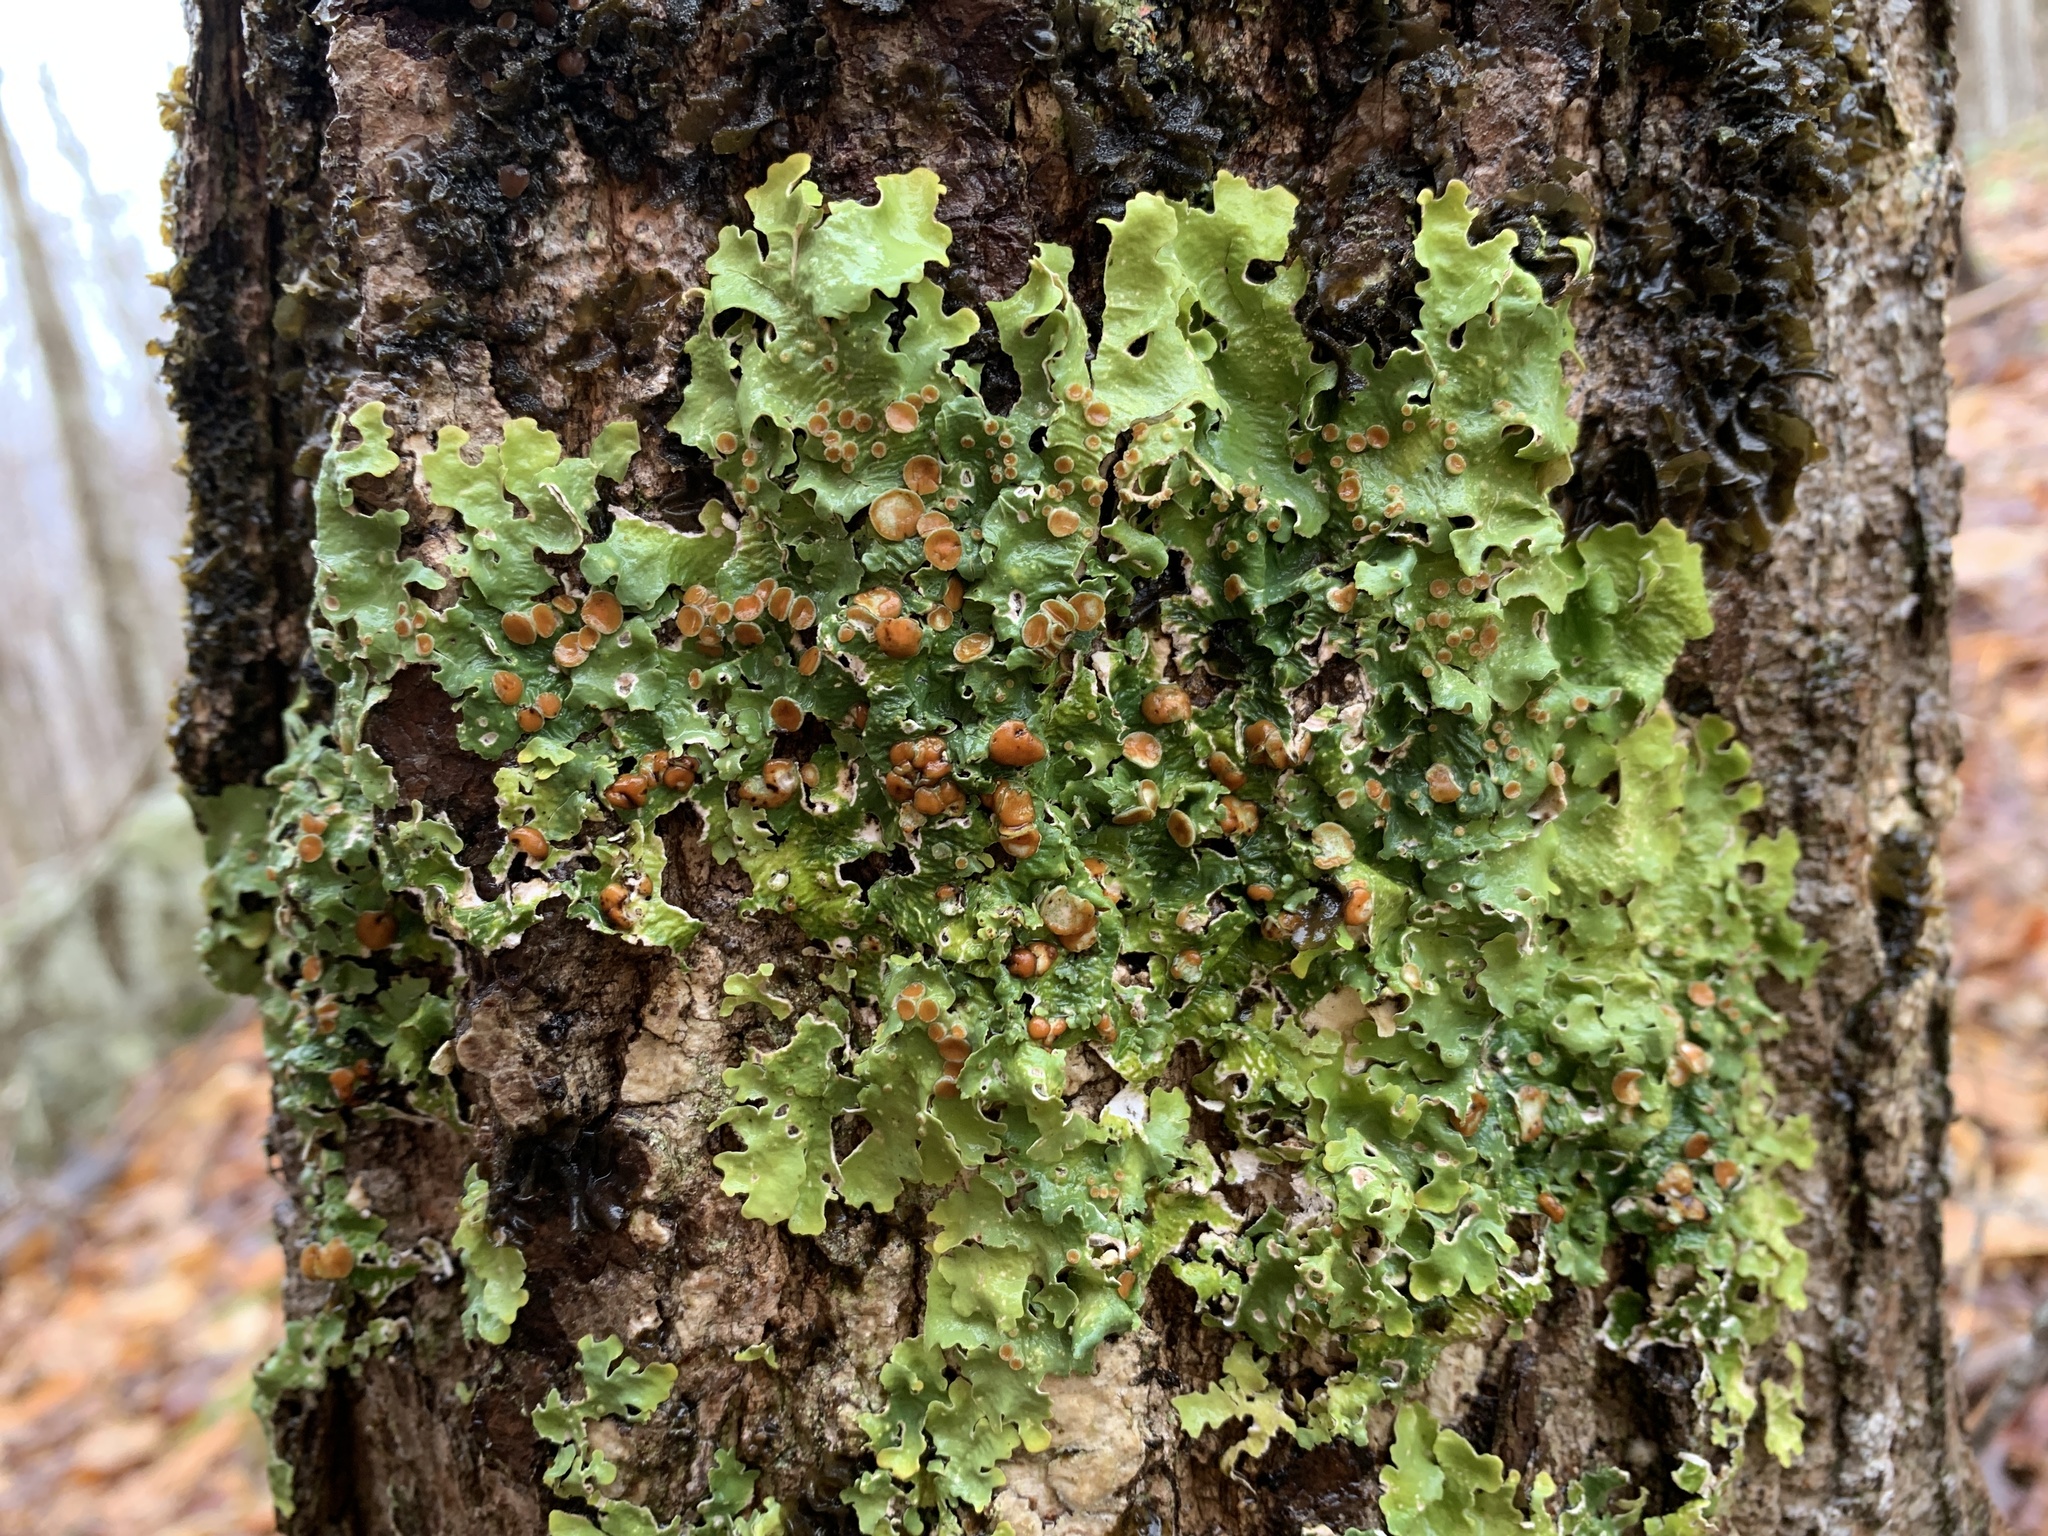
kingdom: Fungi
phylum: Ascomycota
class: Lecanoromycetes
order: Peltigerales
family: Lobariaceae
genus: Ricasolia
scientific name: Ricasolia quercizans
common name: Smooth lungwort
